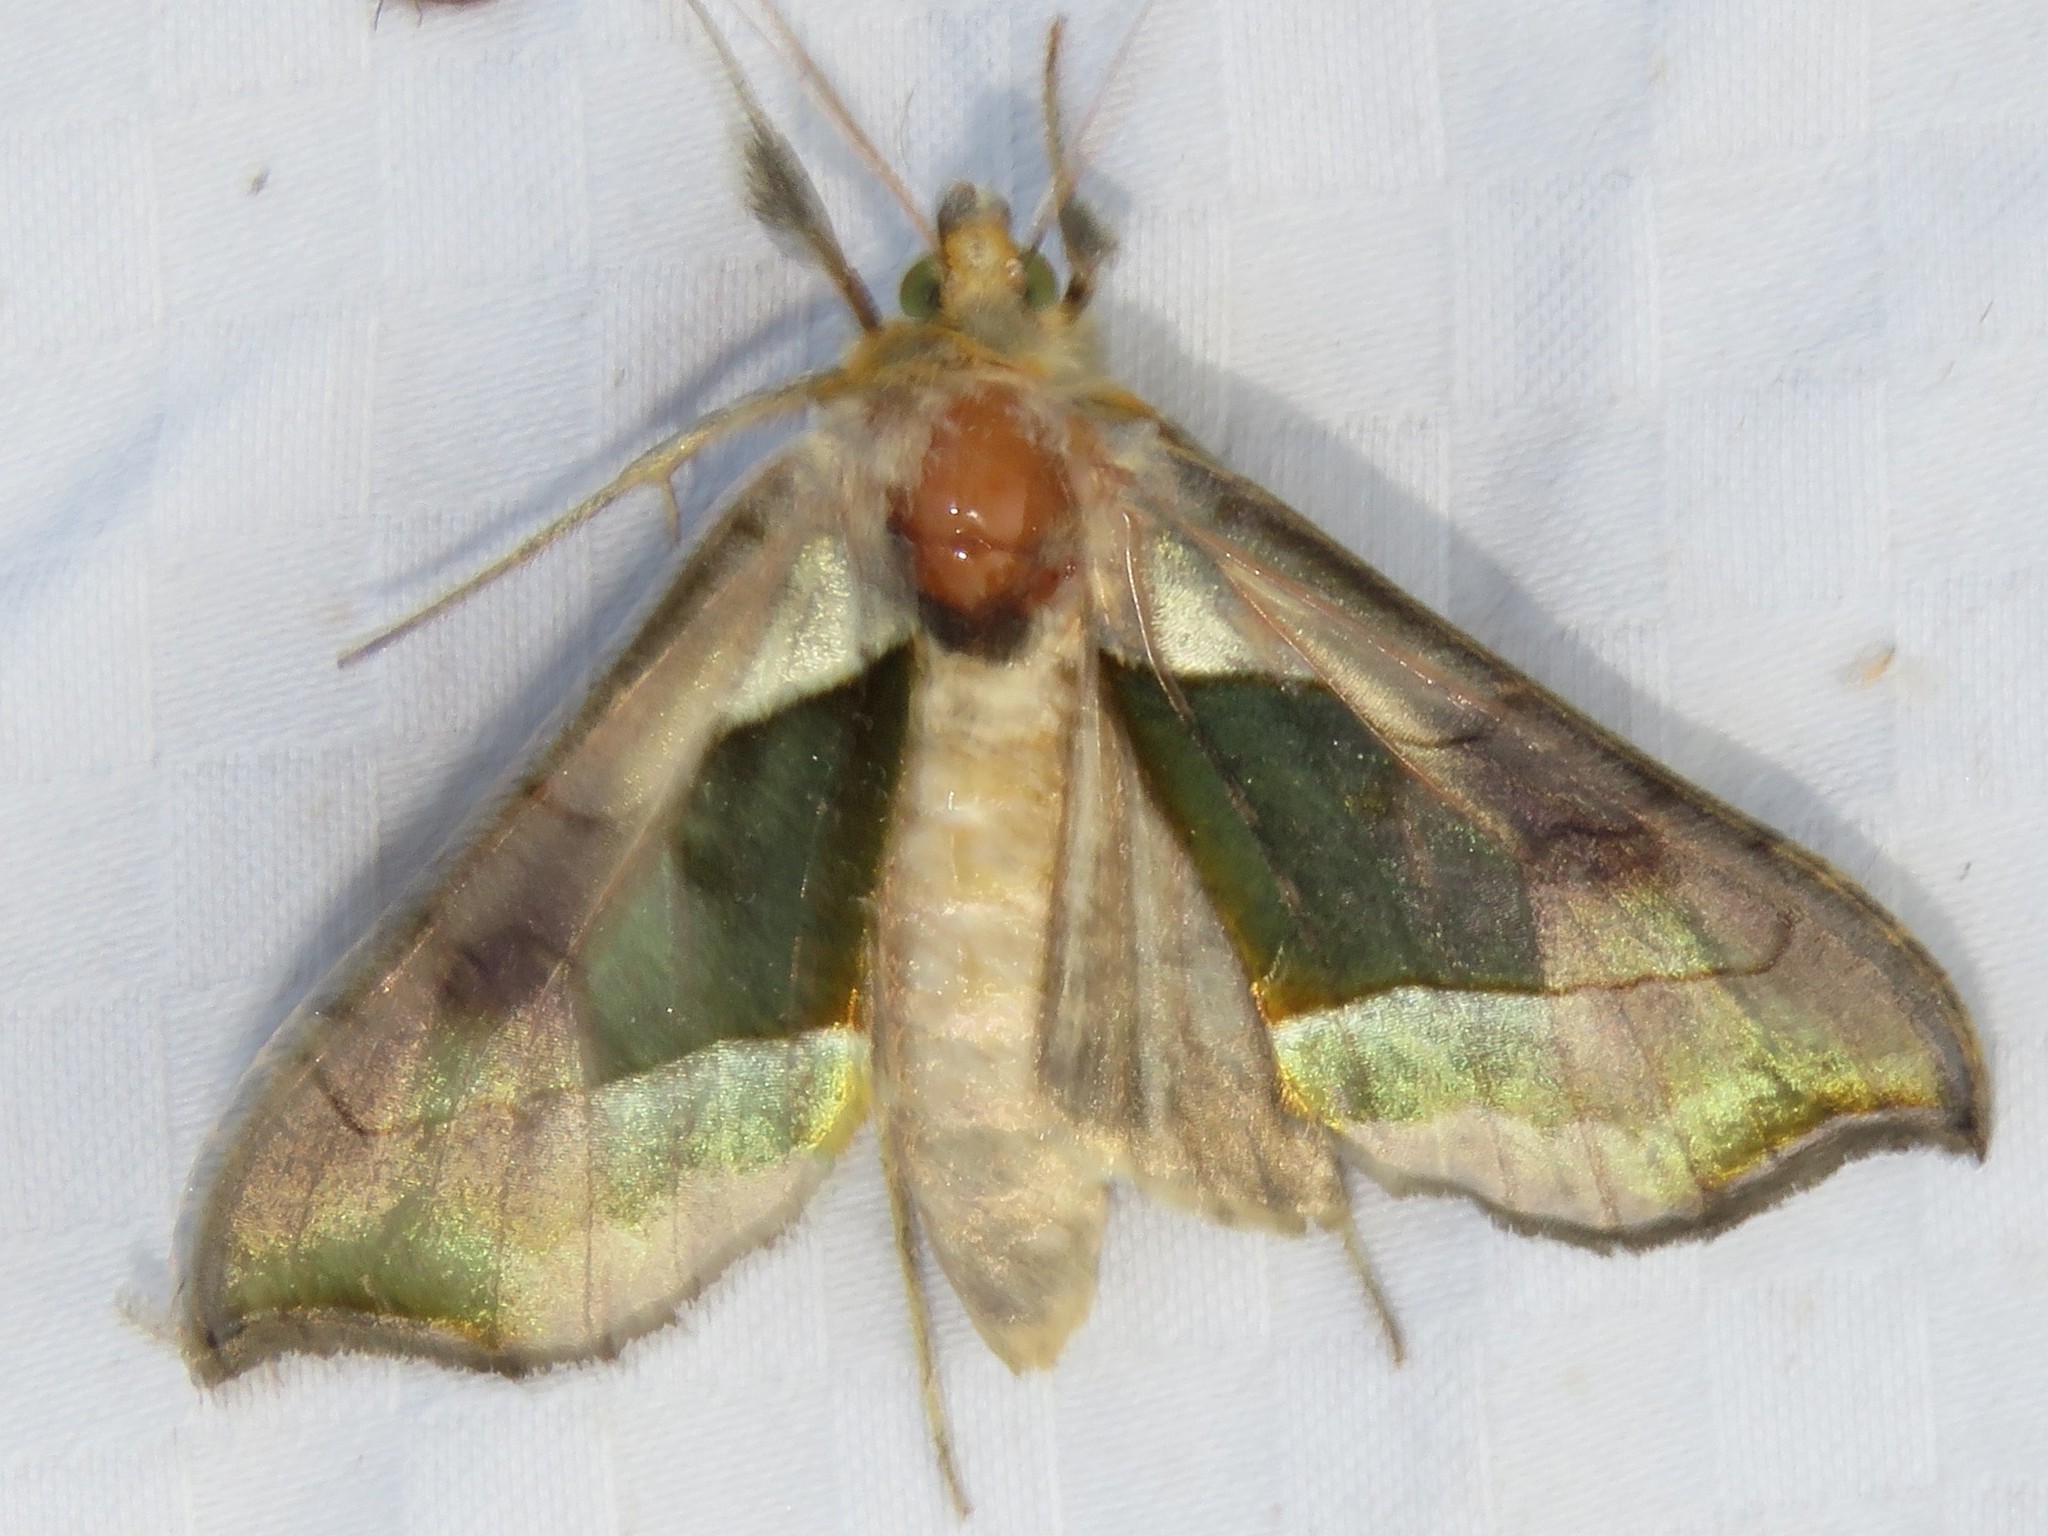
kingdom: Animalia
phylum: Arthropoda
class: Insecta
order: Lepidoptera
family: Noctuidae
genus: Diachrysia
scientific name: Diachrysia balluca
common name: Green-patched looper moth
